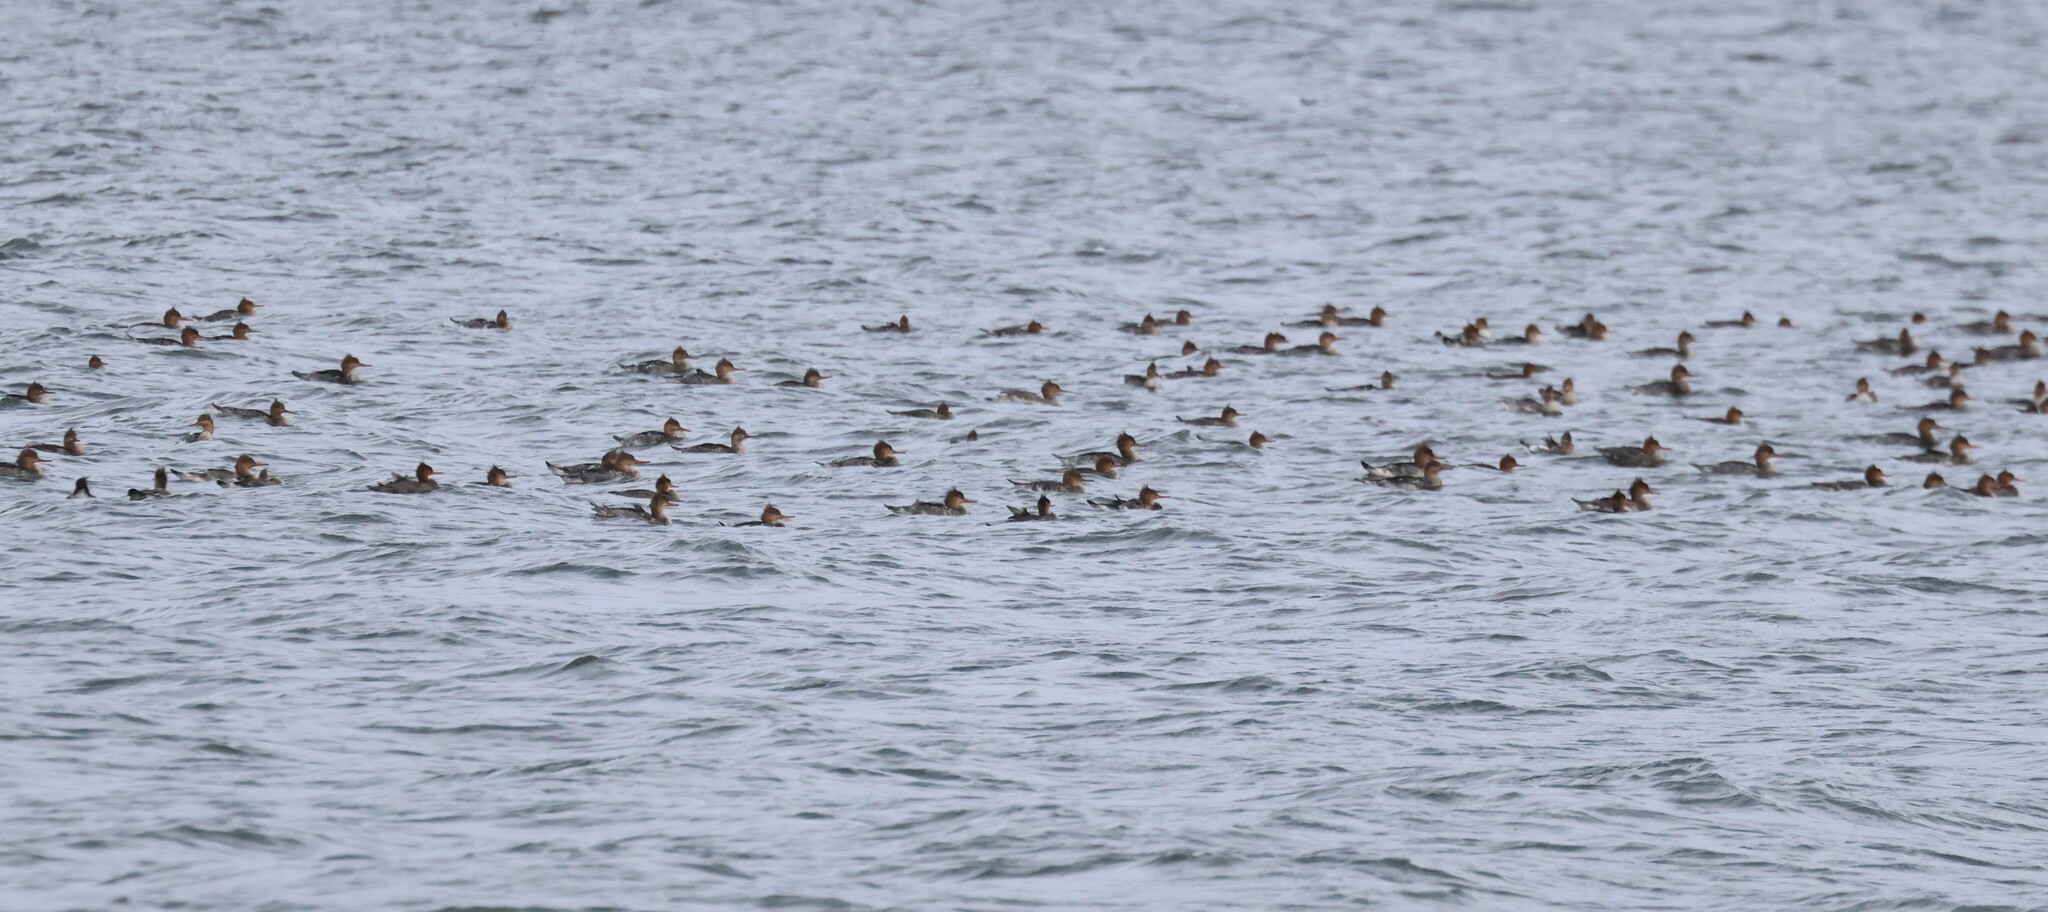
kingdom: Animalia
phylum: Chordata
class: Aves
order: Anseriformes
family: Anatidae
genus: Mergus
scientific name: Mergus serrator
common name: Red-breasted merganser
